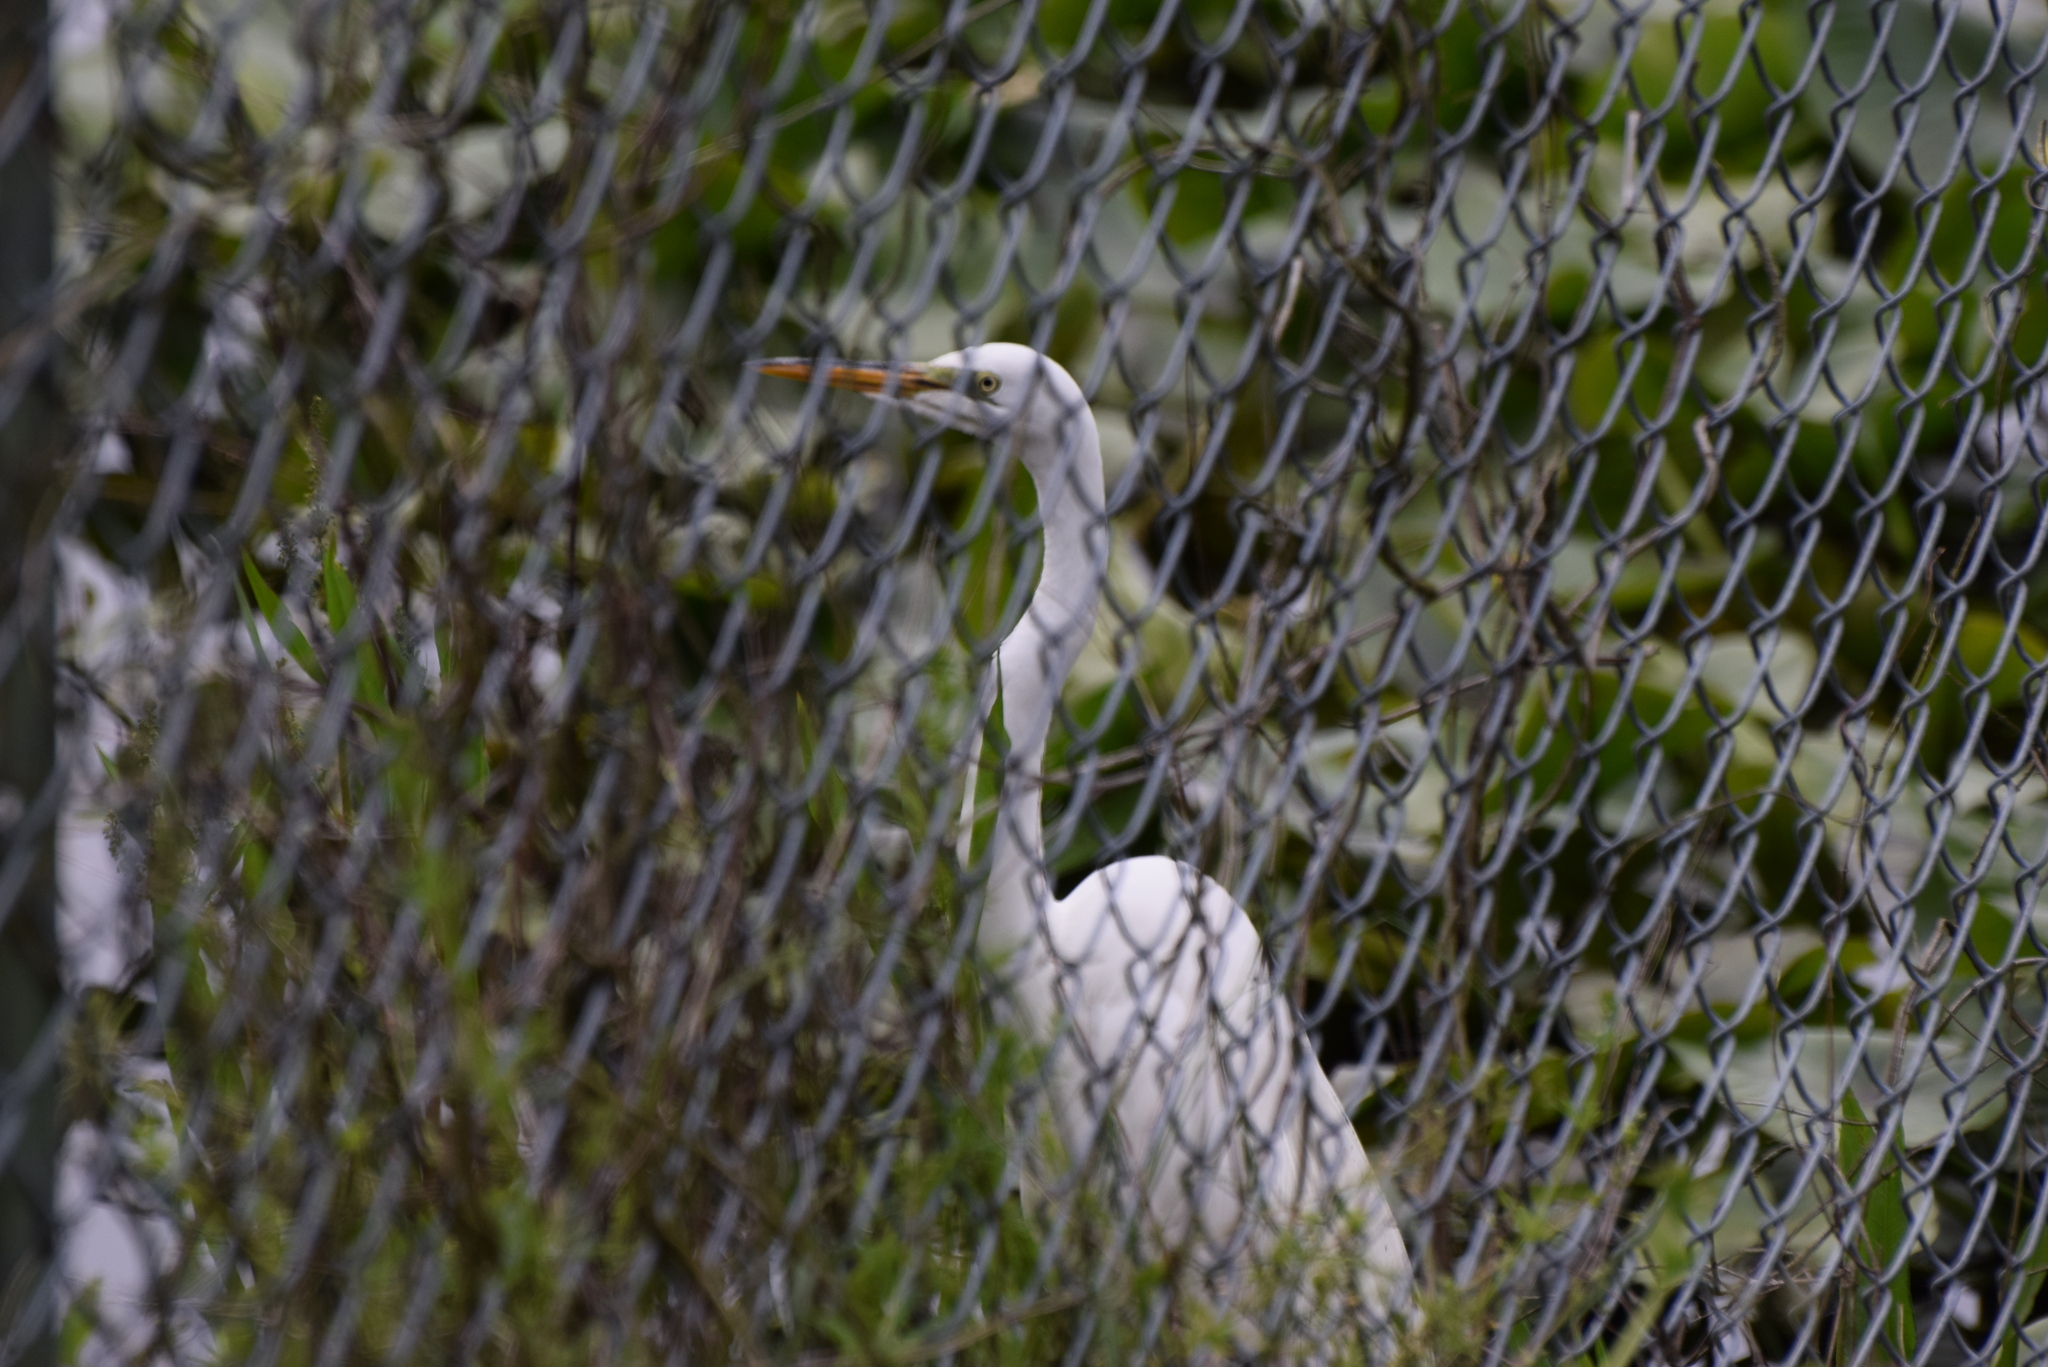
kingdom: Animalia
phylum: Chordata
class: Aves
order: Pelecaniformes
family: Ardeidae
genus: Ardea
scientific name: Ardea alba
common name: Great egret
